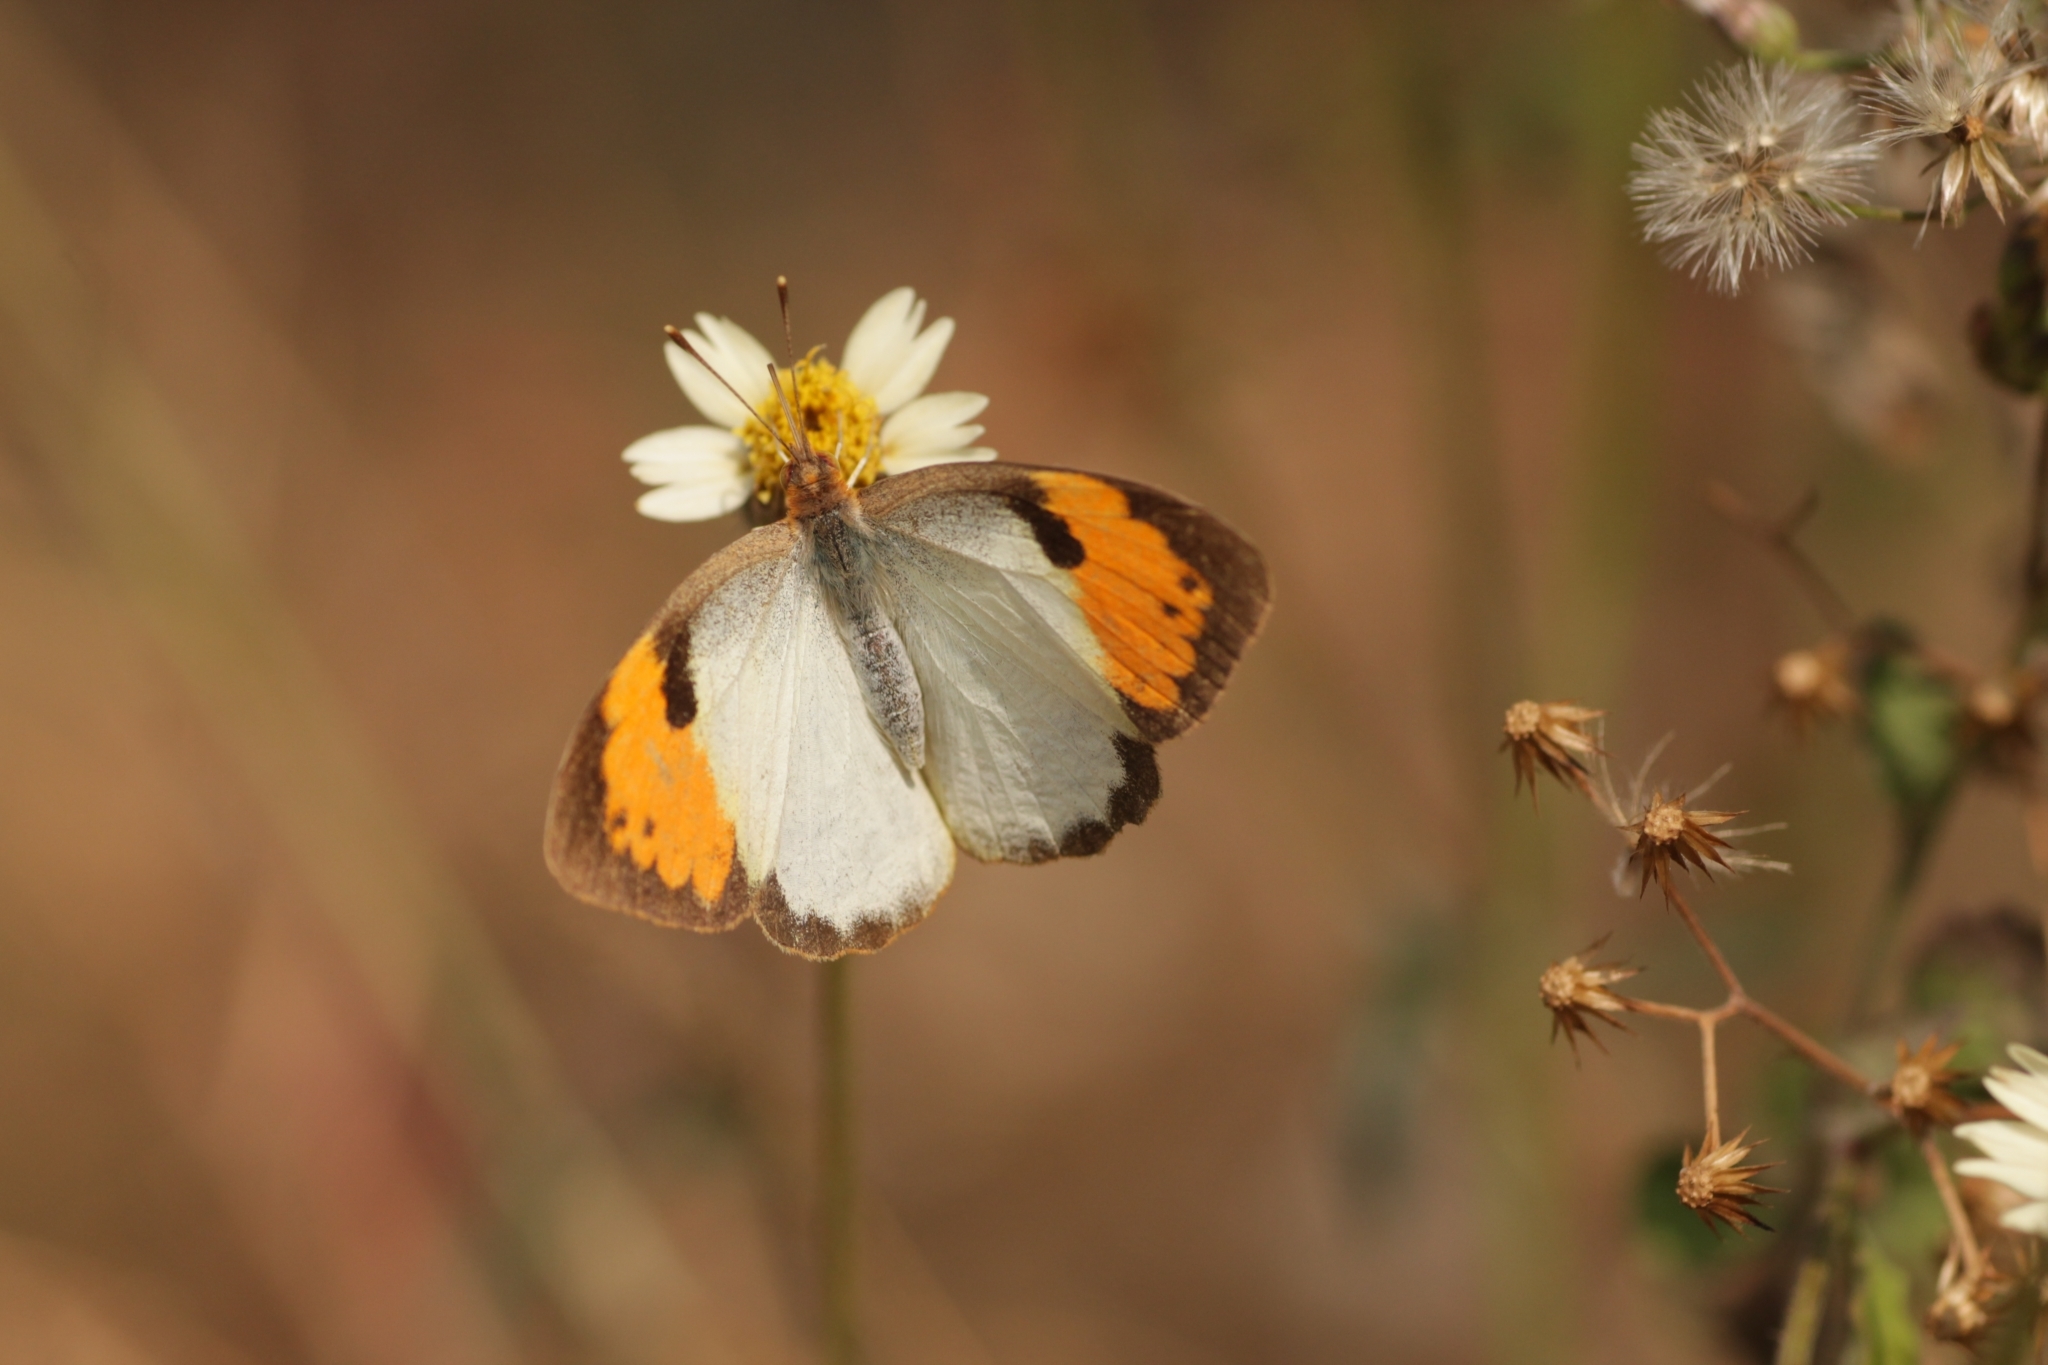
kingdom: Animalia
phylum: Arthropoda
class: Insecta
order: Lepidoptera
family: Pieridae
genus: Ixias
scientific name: Ixias marianne
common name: White orange tip
